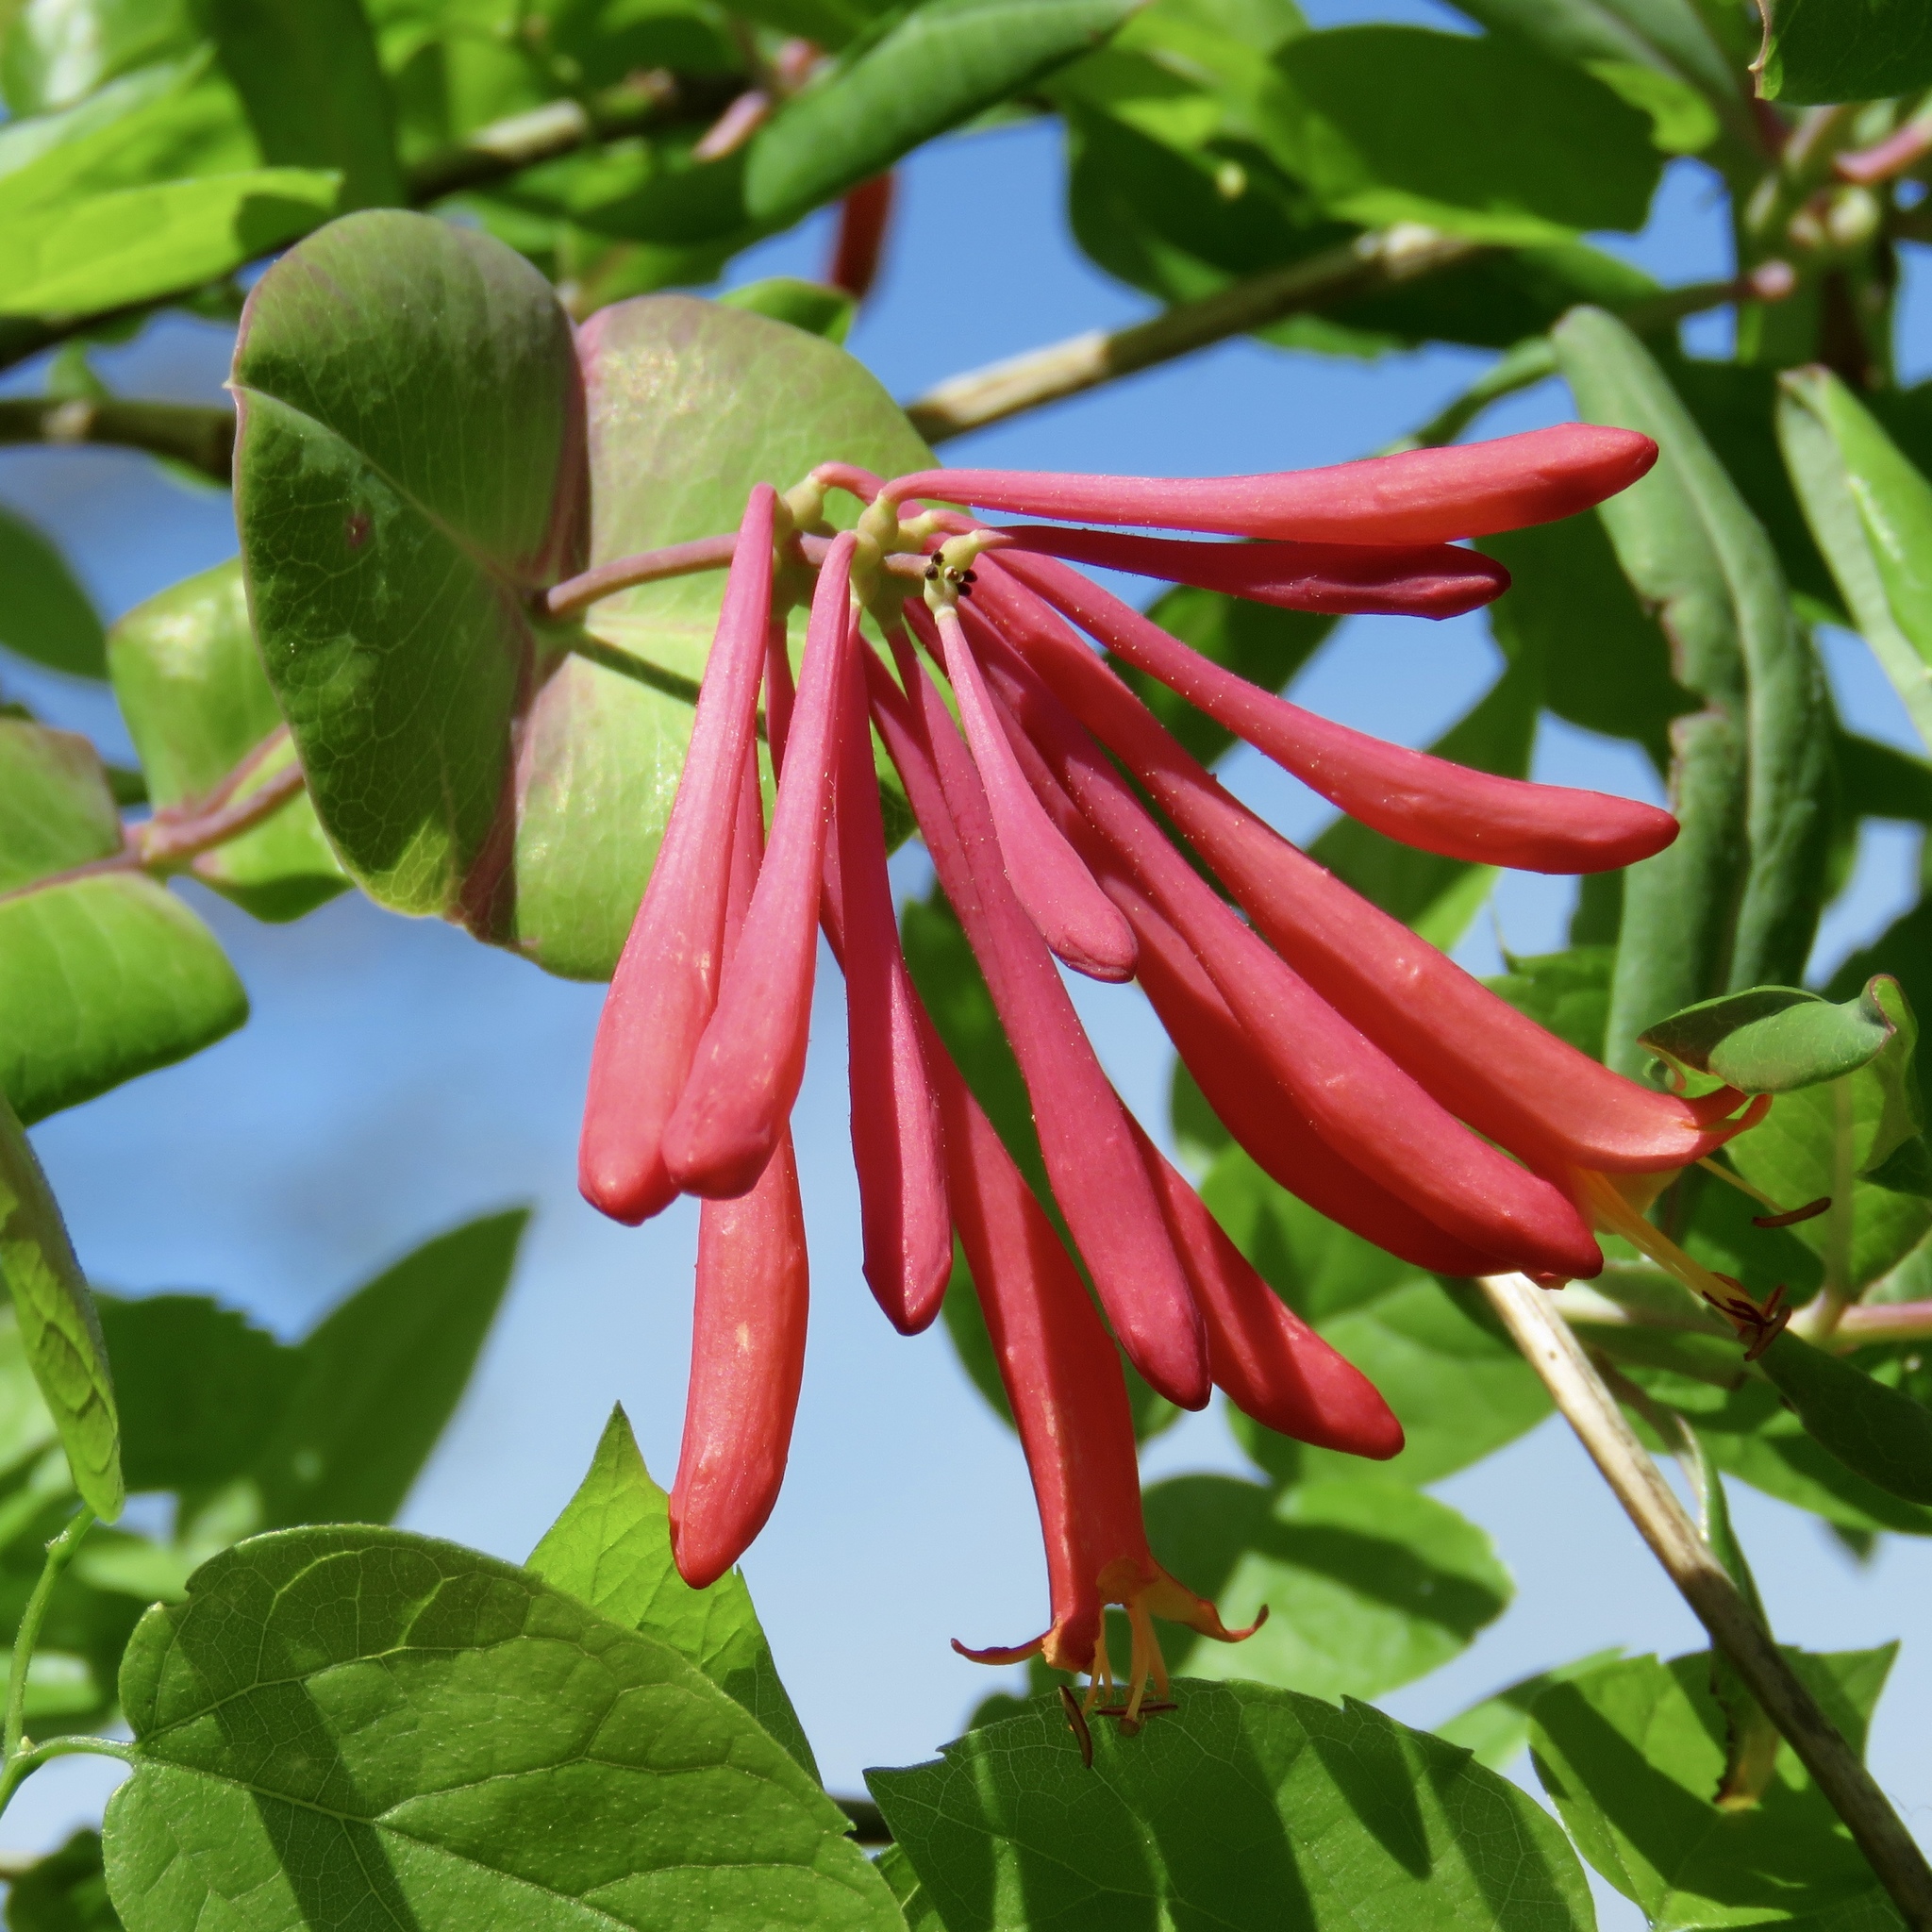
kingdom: Plantae
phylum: Tracheophyta
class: Magnoliopsida
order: Dipsacales
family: Caprifoliaceae
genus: Lonicera
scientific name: Lonicera sempervirens
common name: Coral honeysuckle
